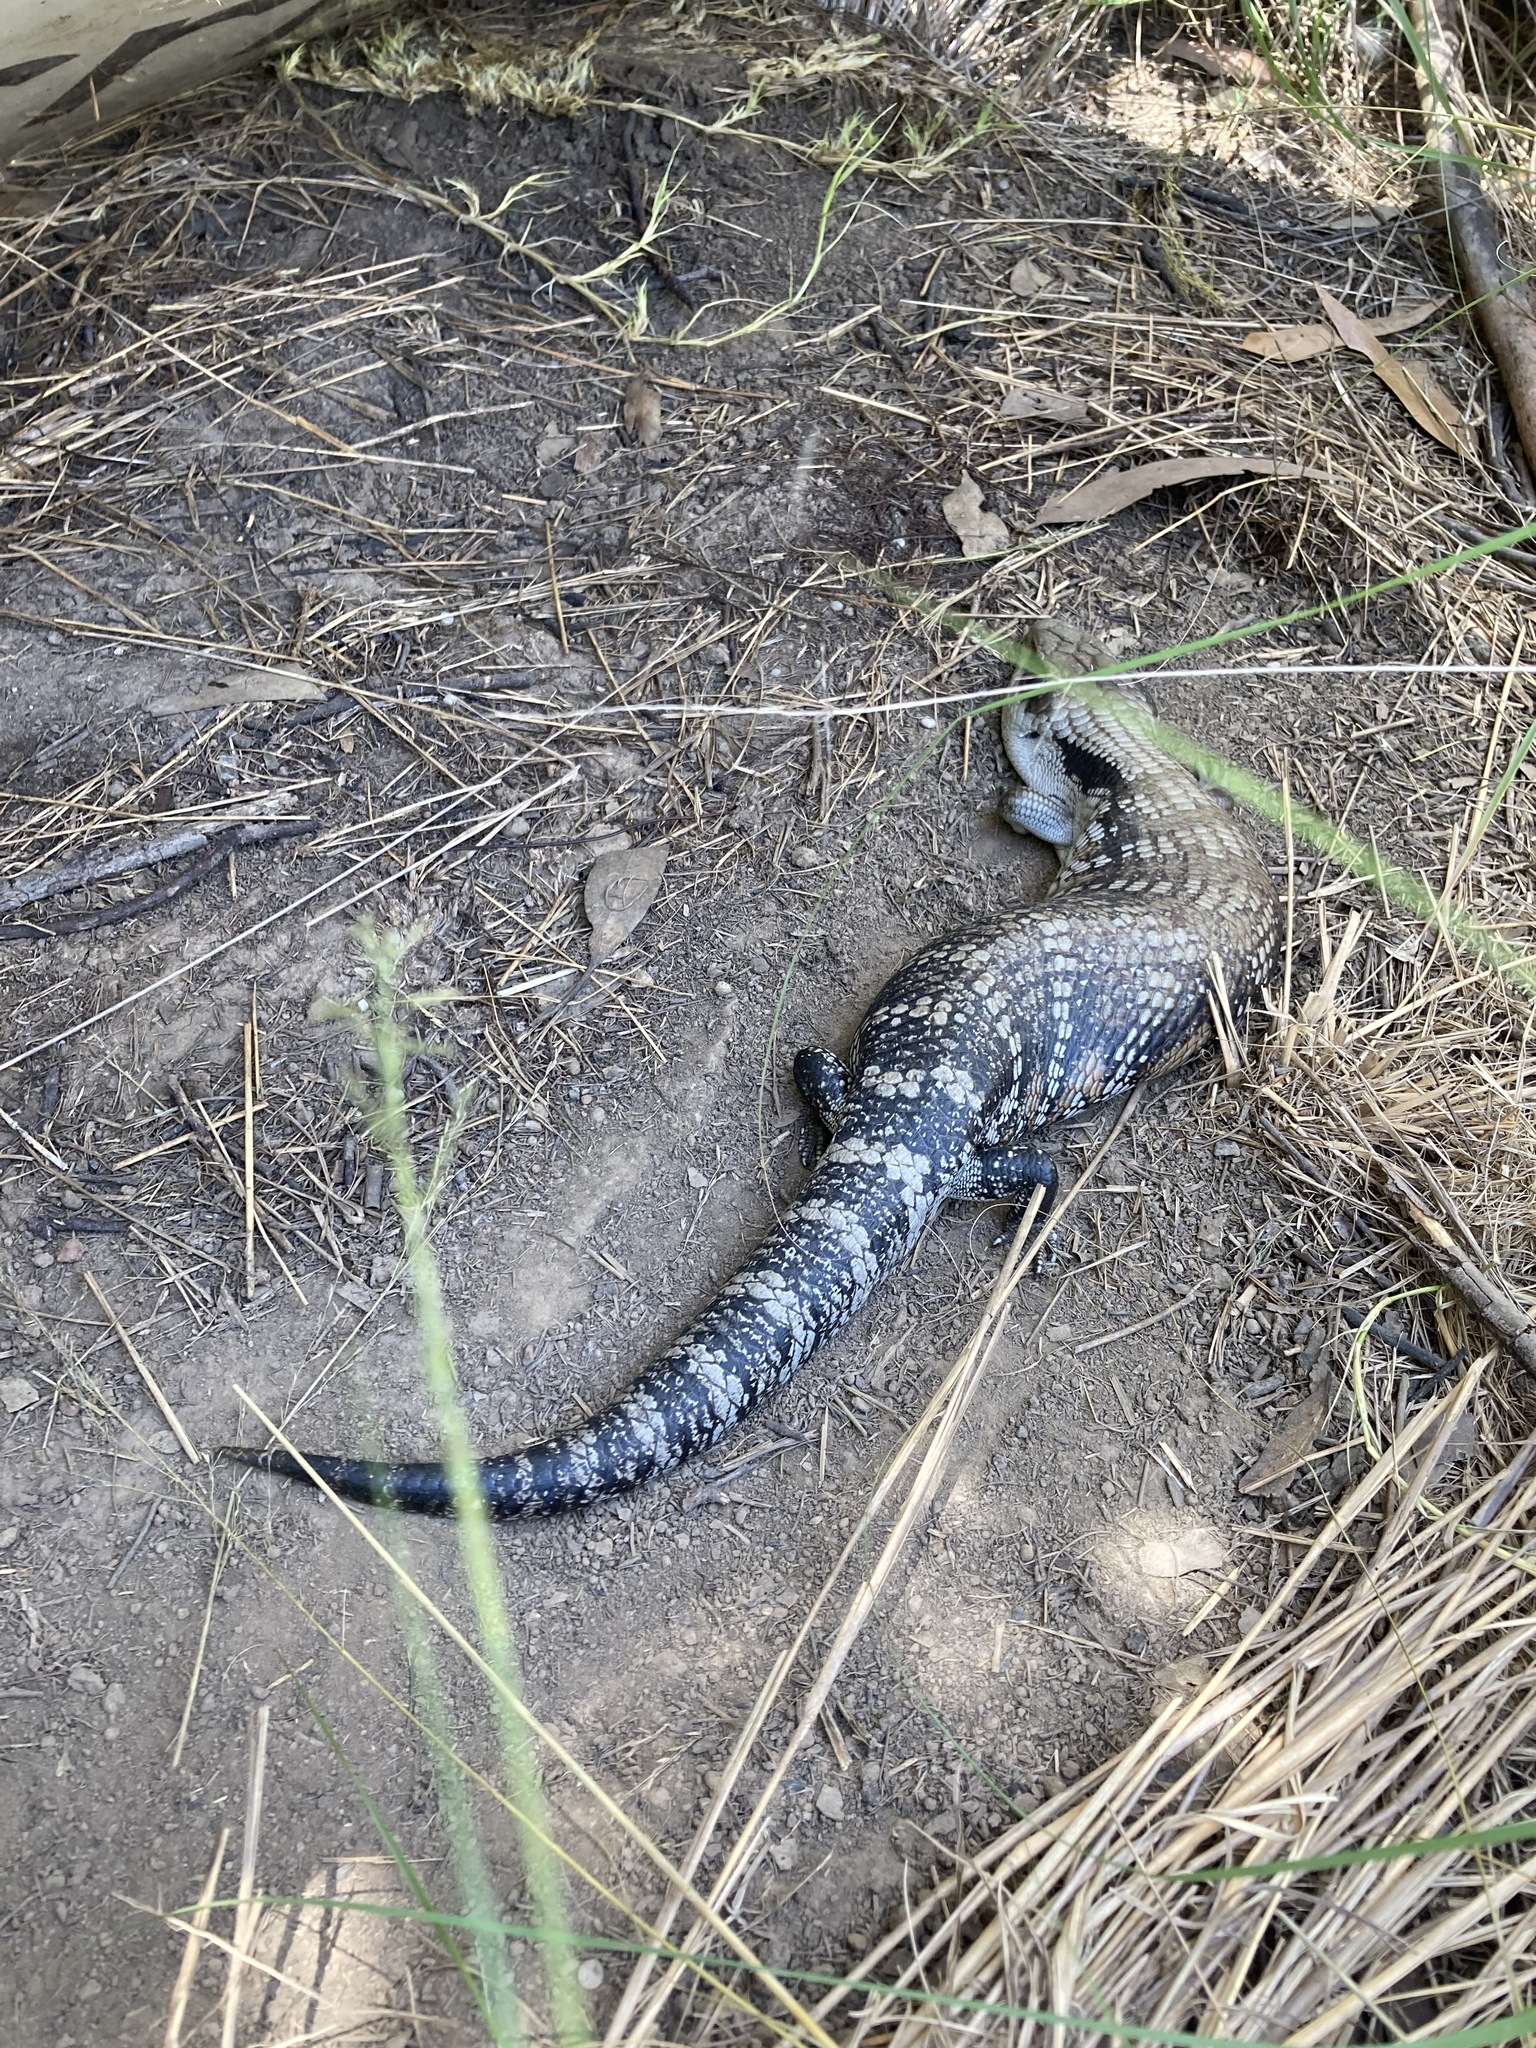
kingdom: Animalia
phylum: Chordata
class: Squamata
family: Scincidae
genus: Tiliqua
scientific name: Tiliqua scincoides
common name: Common bluetongue
